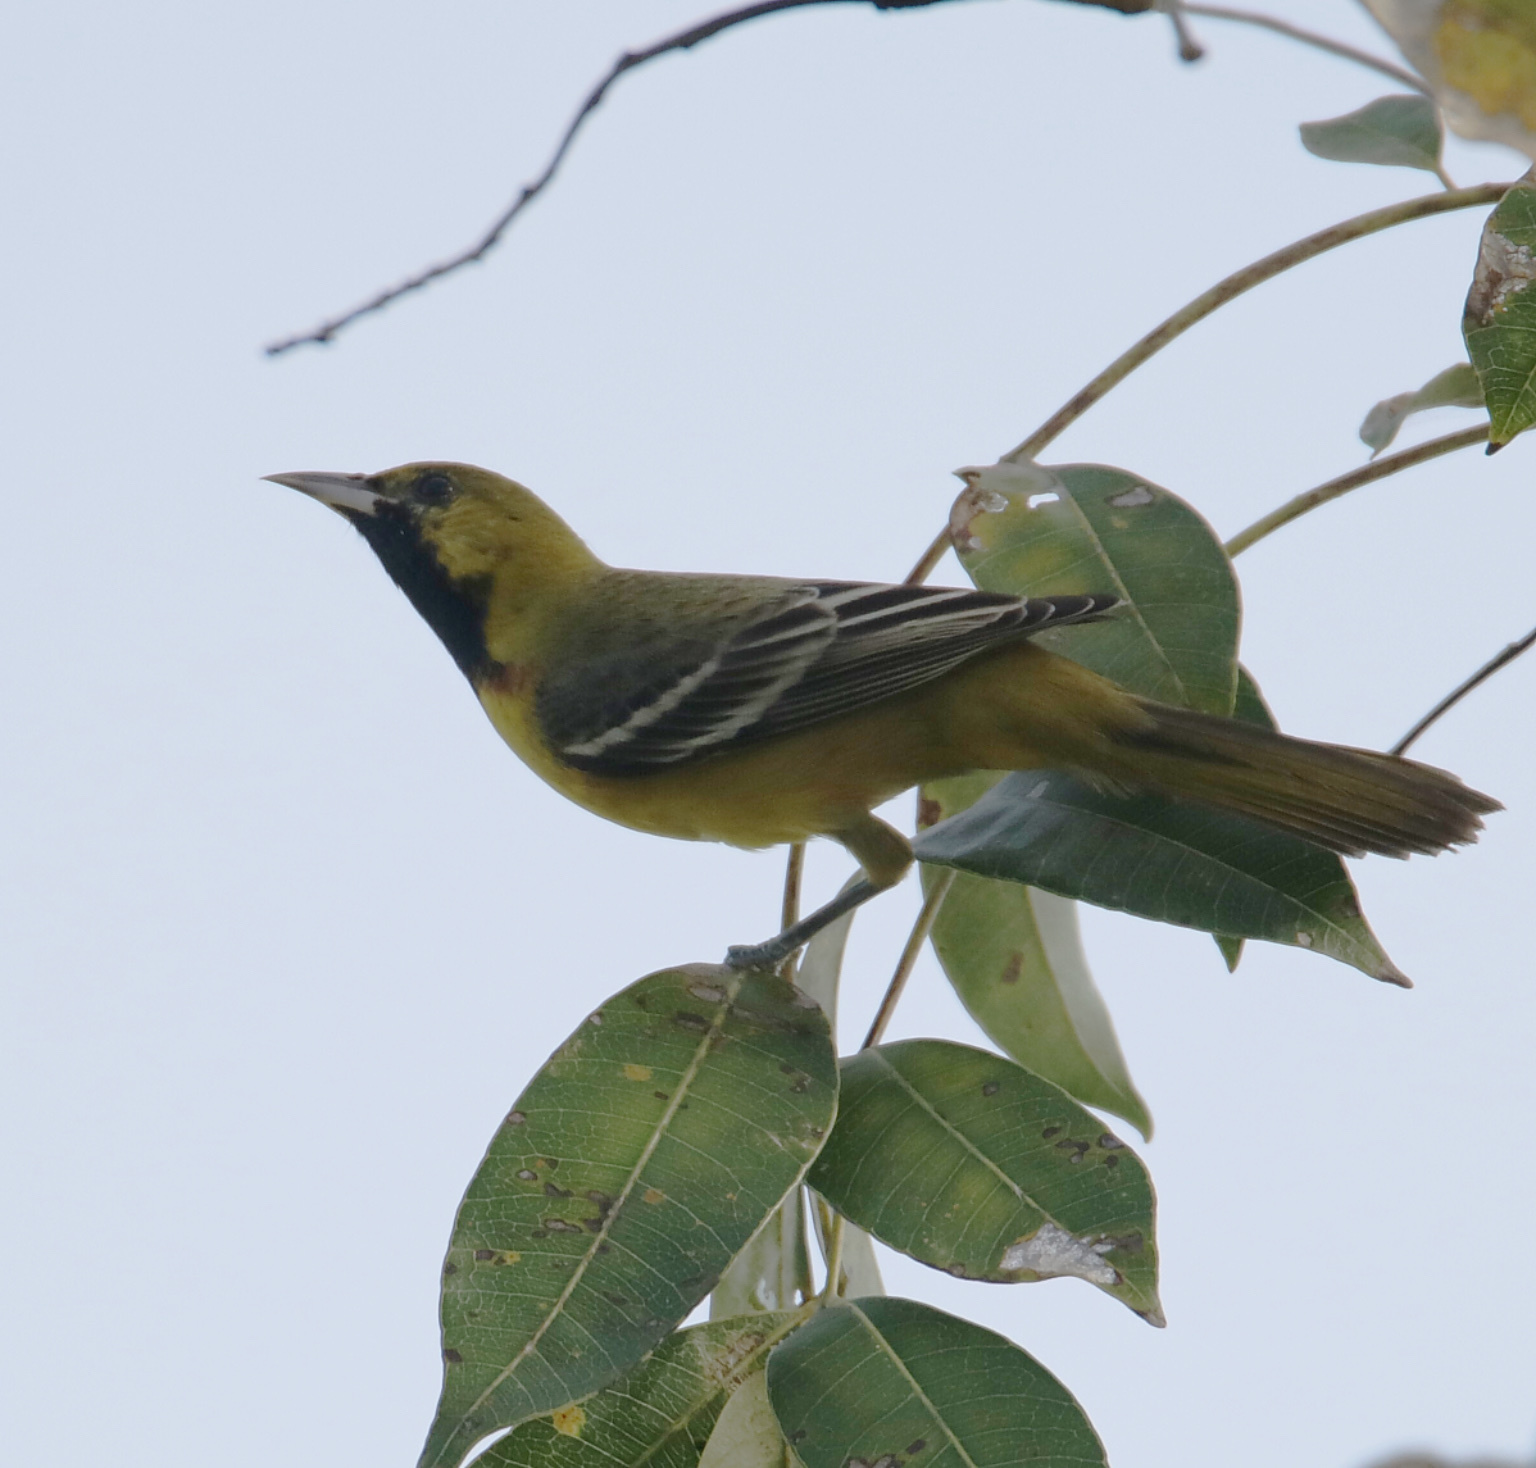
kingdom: Animalia
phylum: Chordata
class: Aves
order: Passeriformes
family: Icteridae
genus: Icterus
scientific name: Icterus spurius
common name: Orchard oriole
